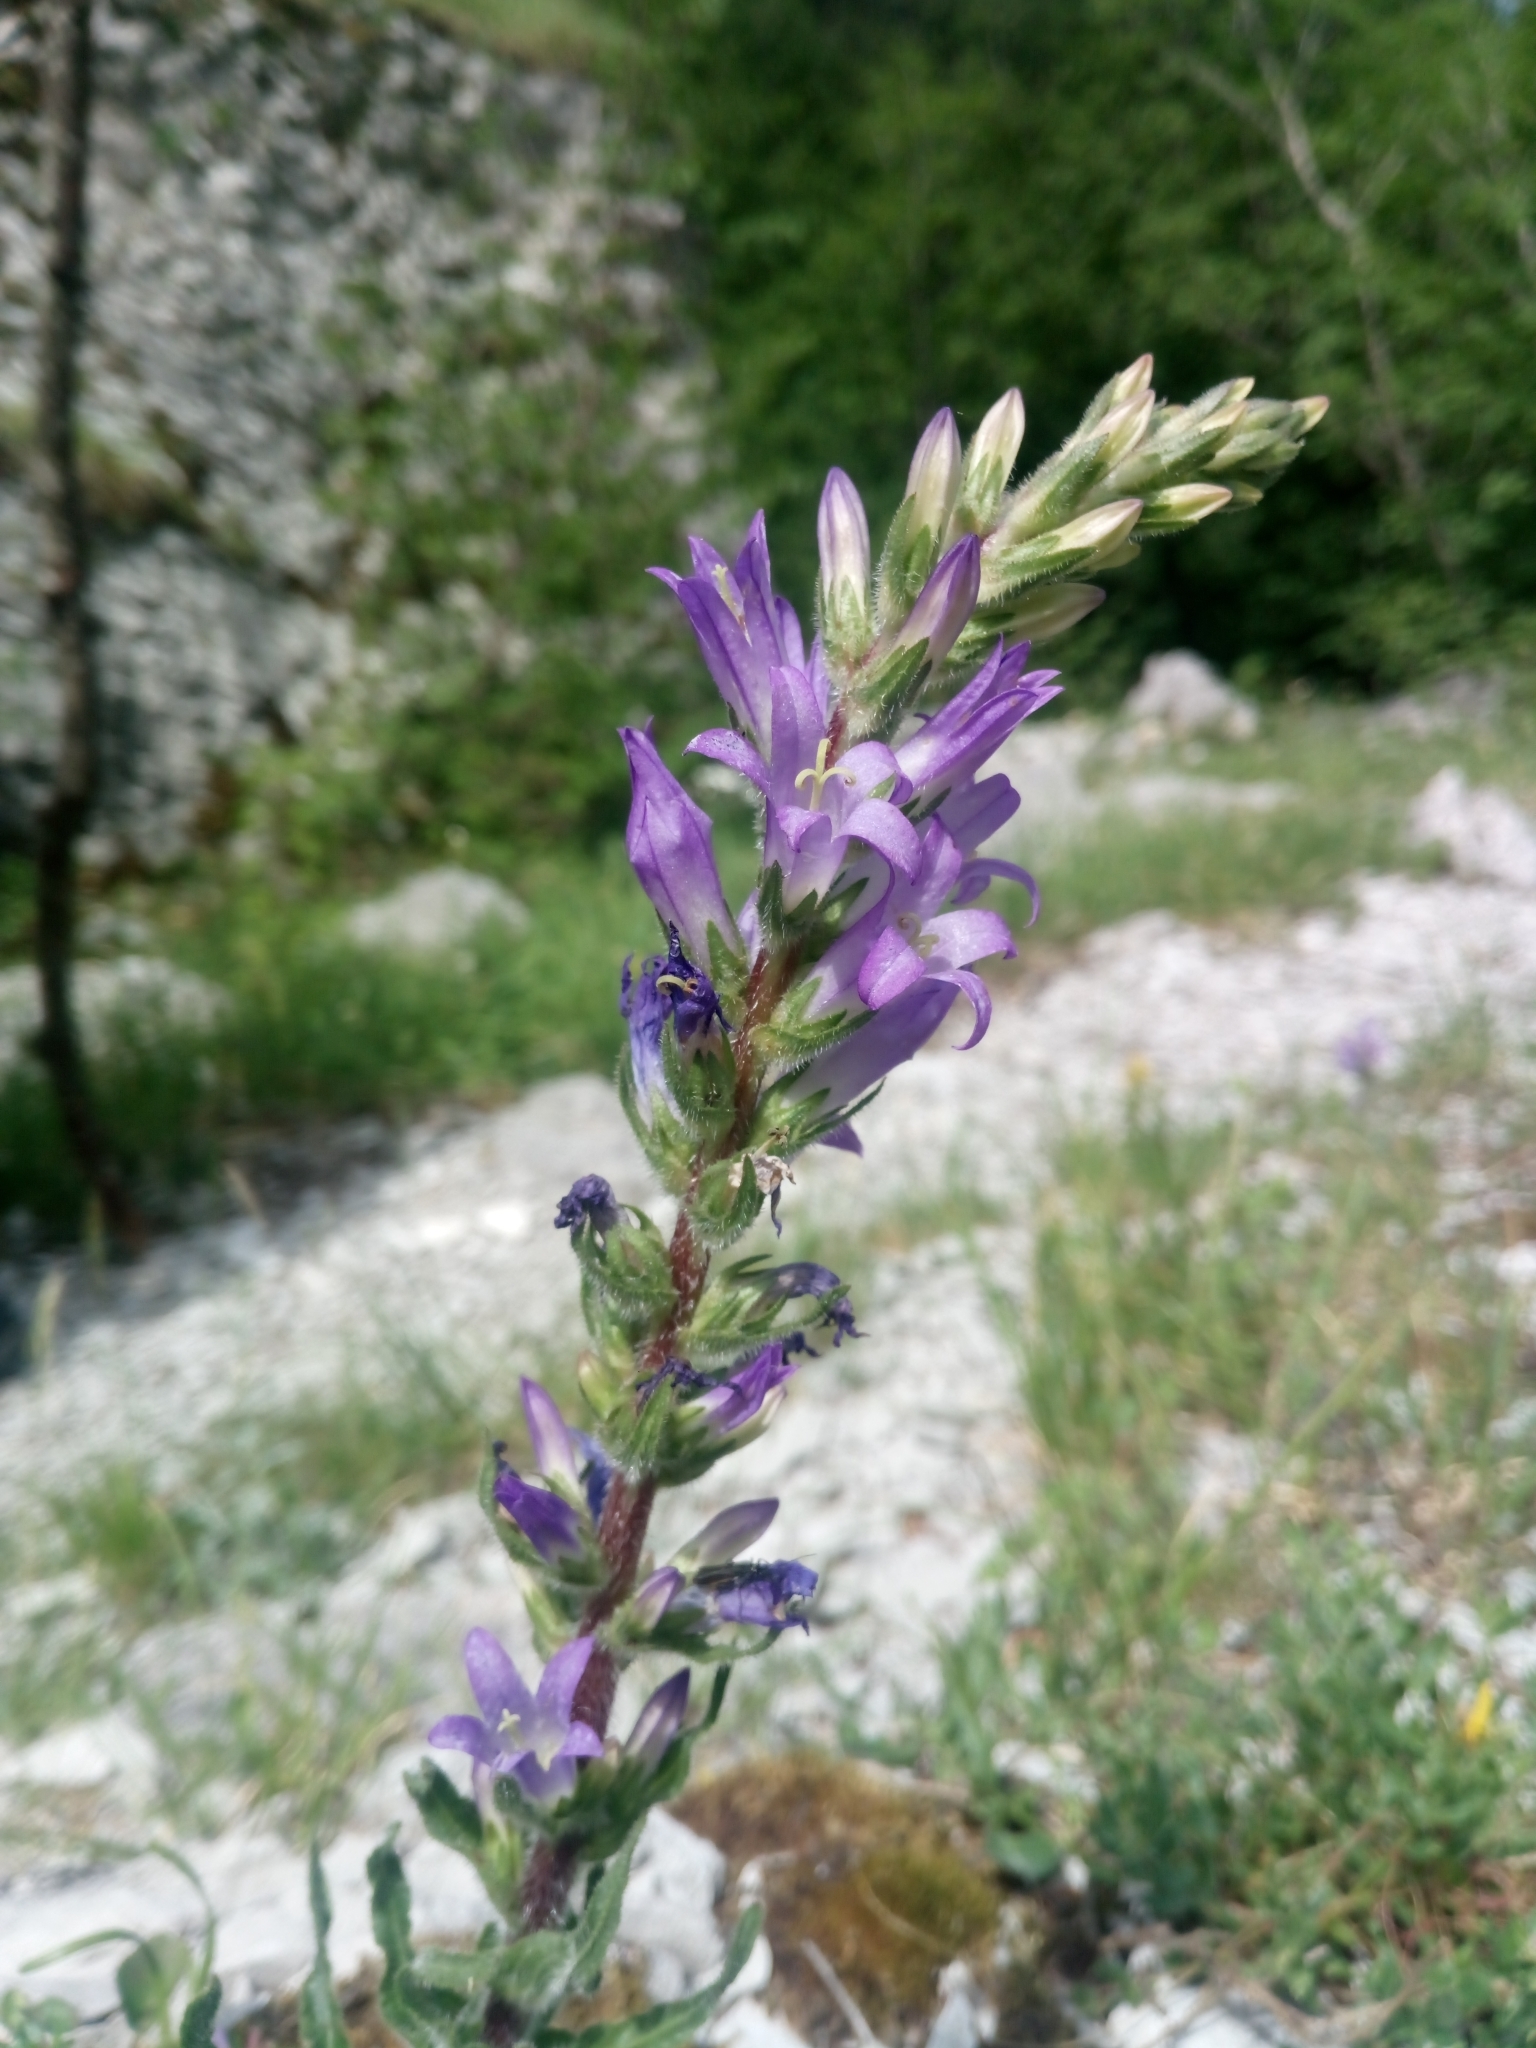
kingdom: Plantae
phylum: Tracheophyta
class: Magnoliopsida
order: Asterales
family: Campanulaceae
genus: Campanula
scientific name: Campanula spicata
